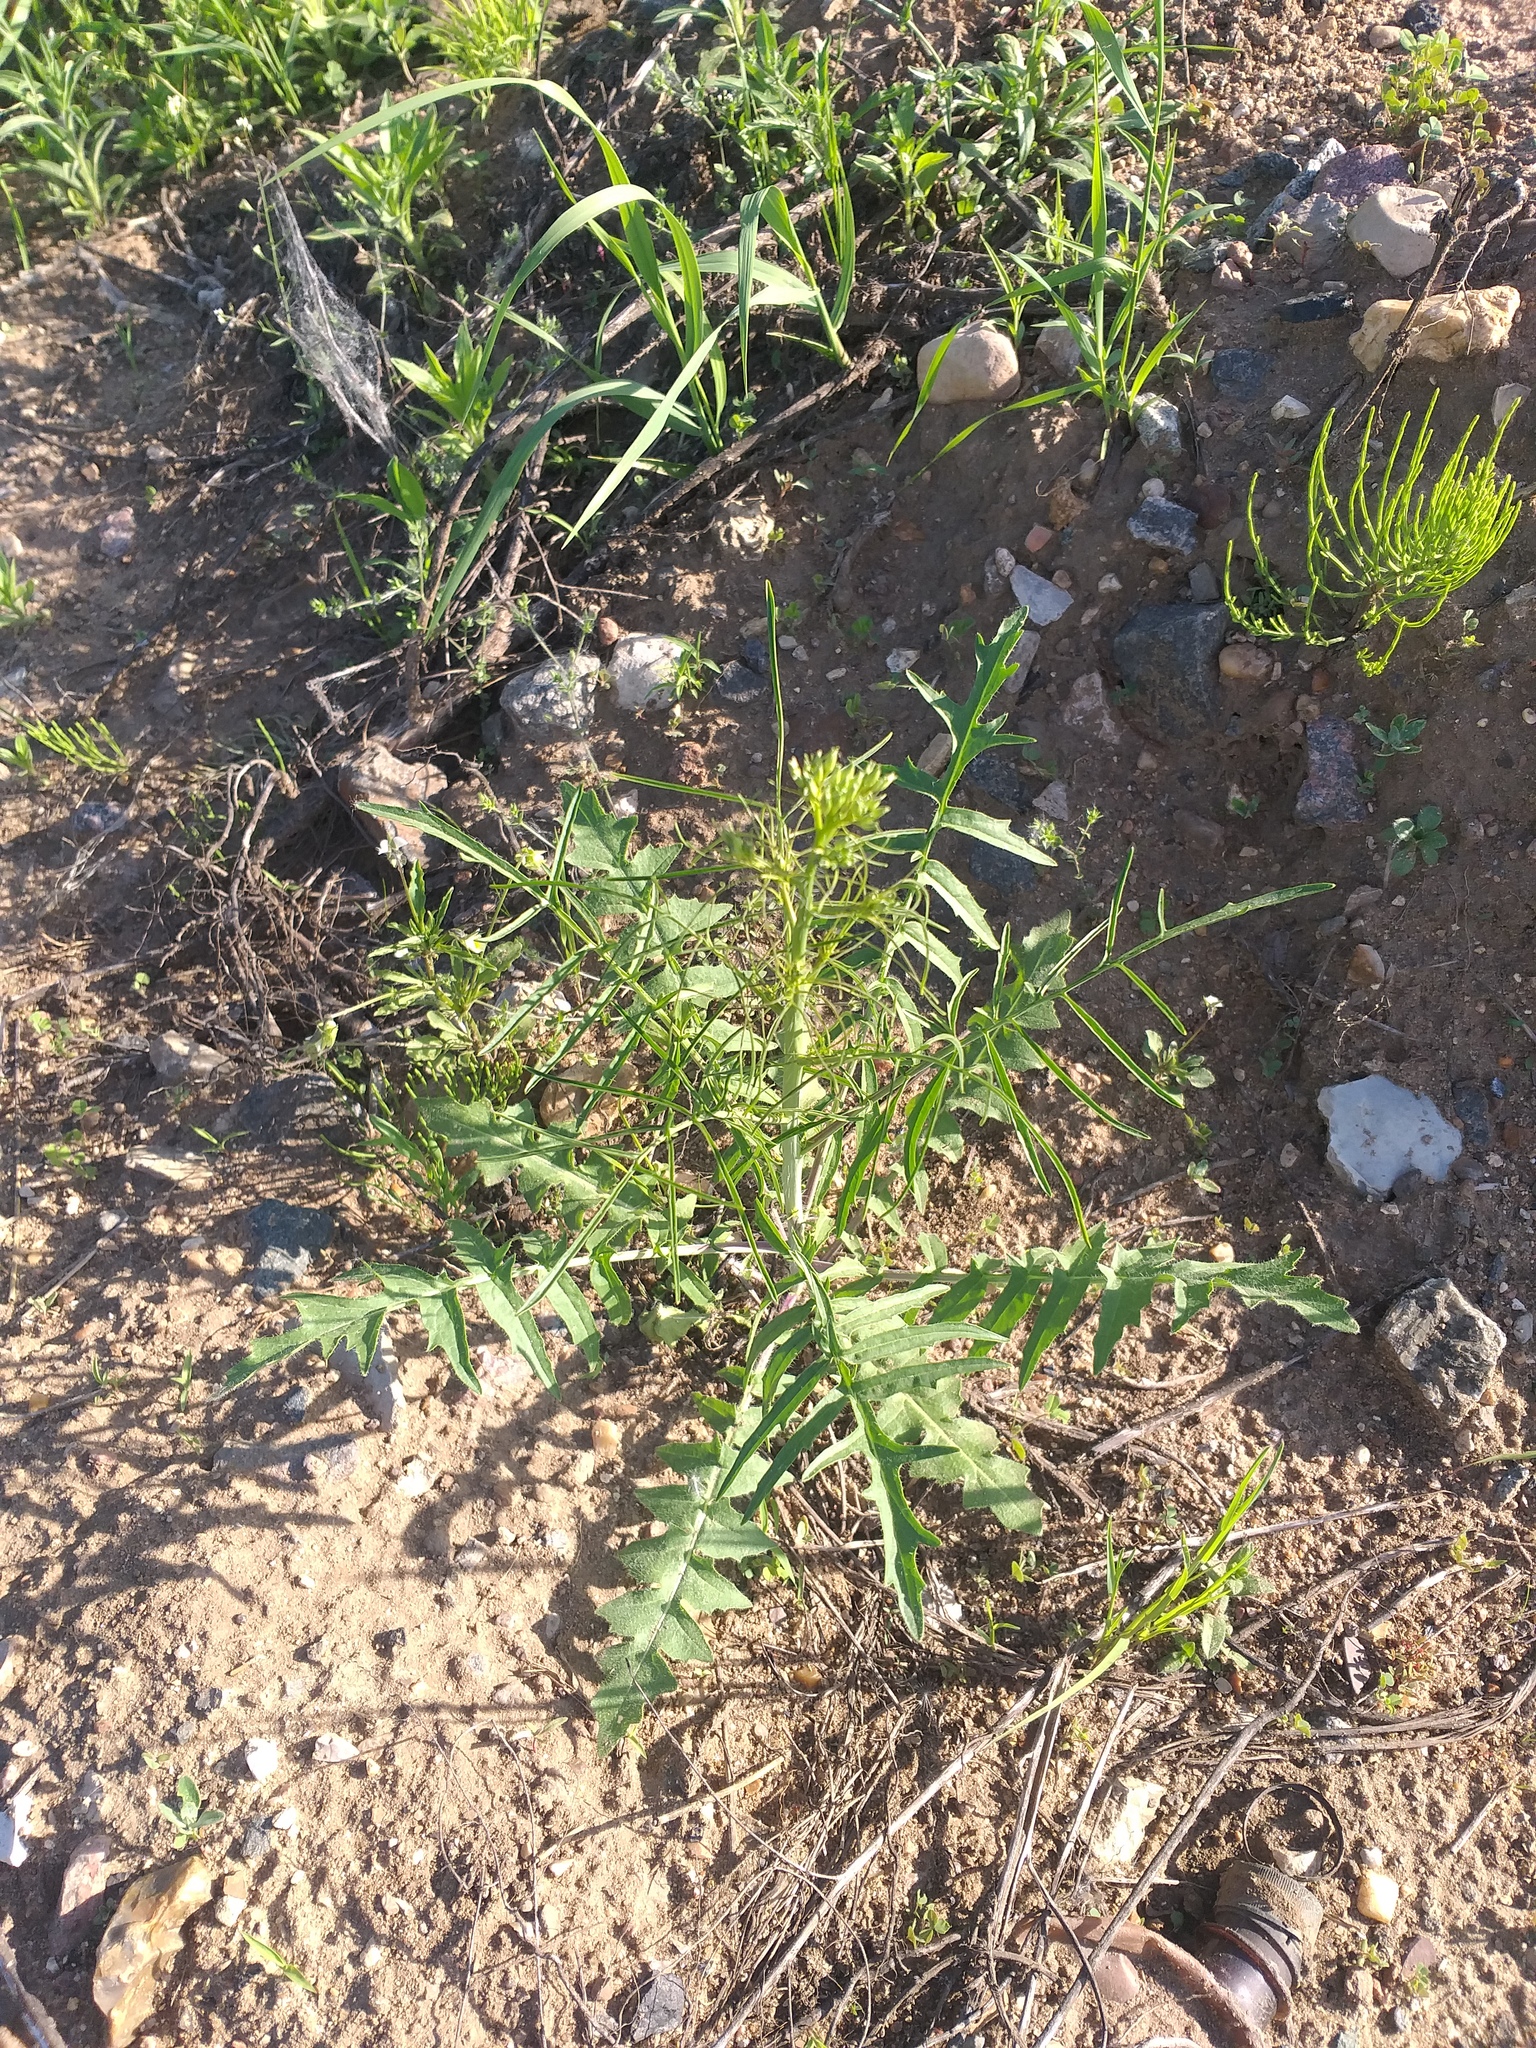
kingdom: Plantae
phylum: Tracheophyta
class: Magnoliopsida
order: Brassicales
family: Brassicaceae
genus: Sisymbrium
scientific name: Sisymbrium altissimum
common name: Tall rocket
